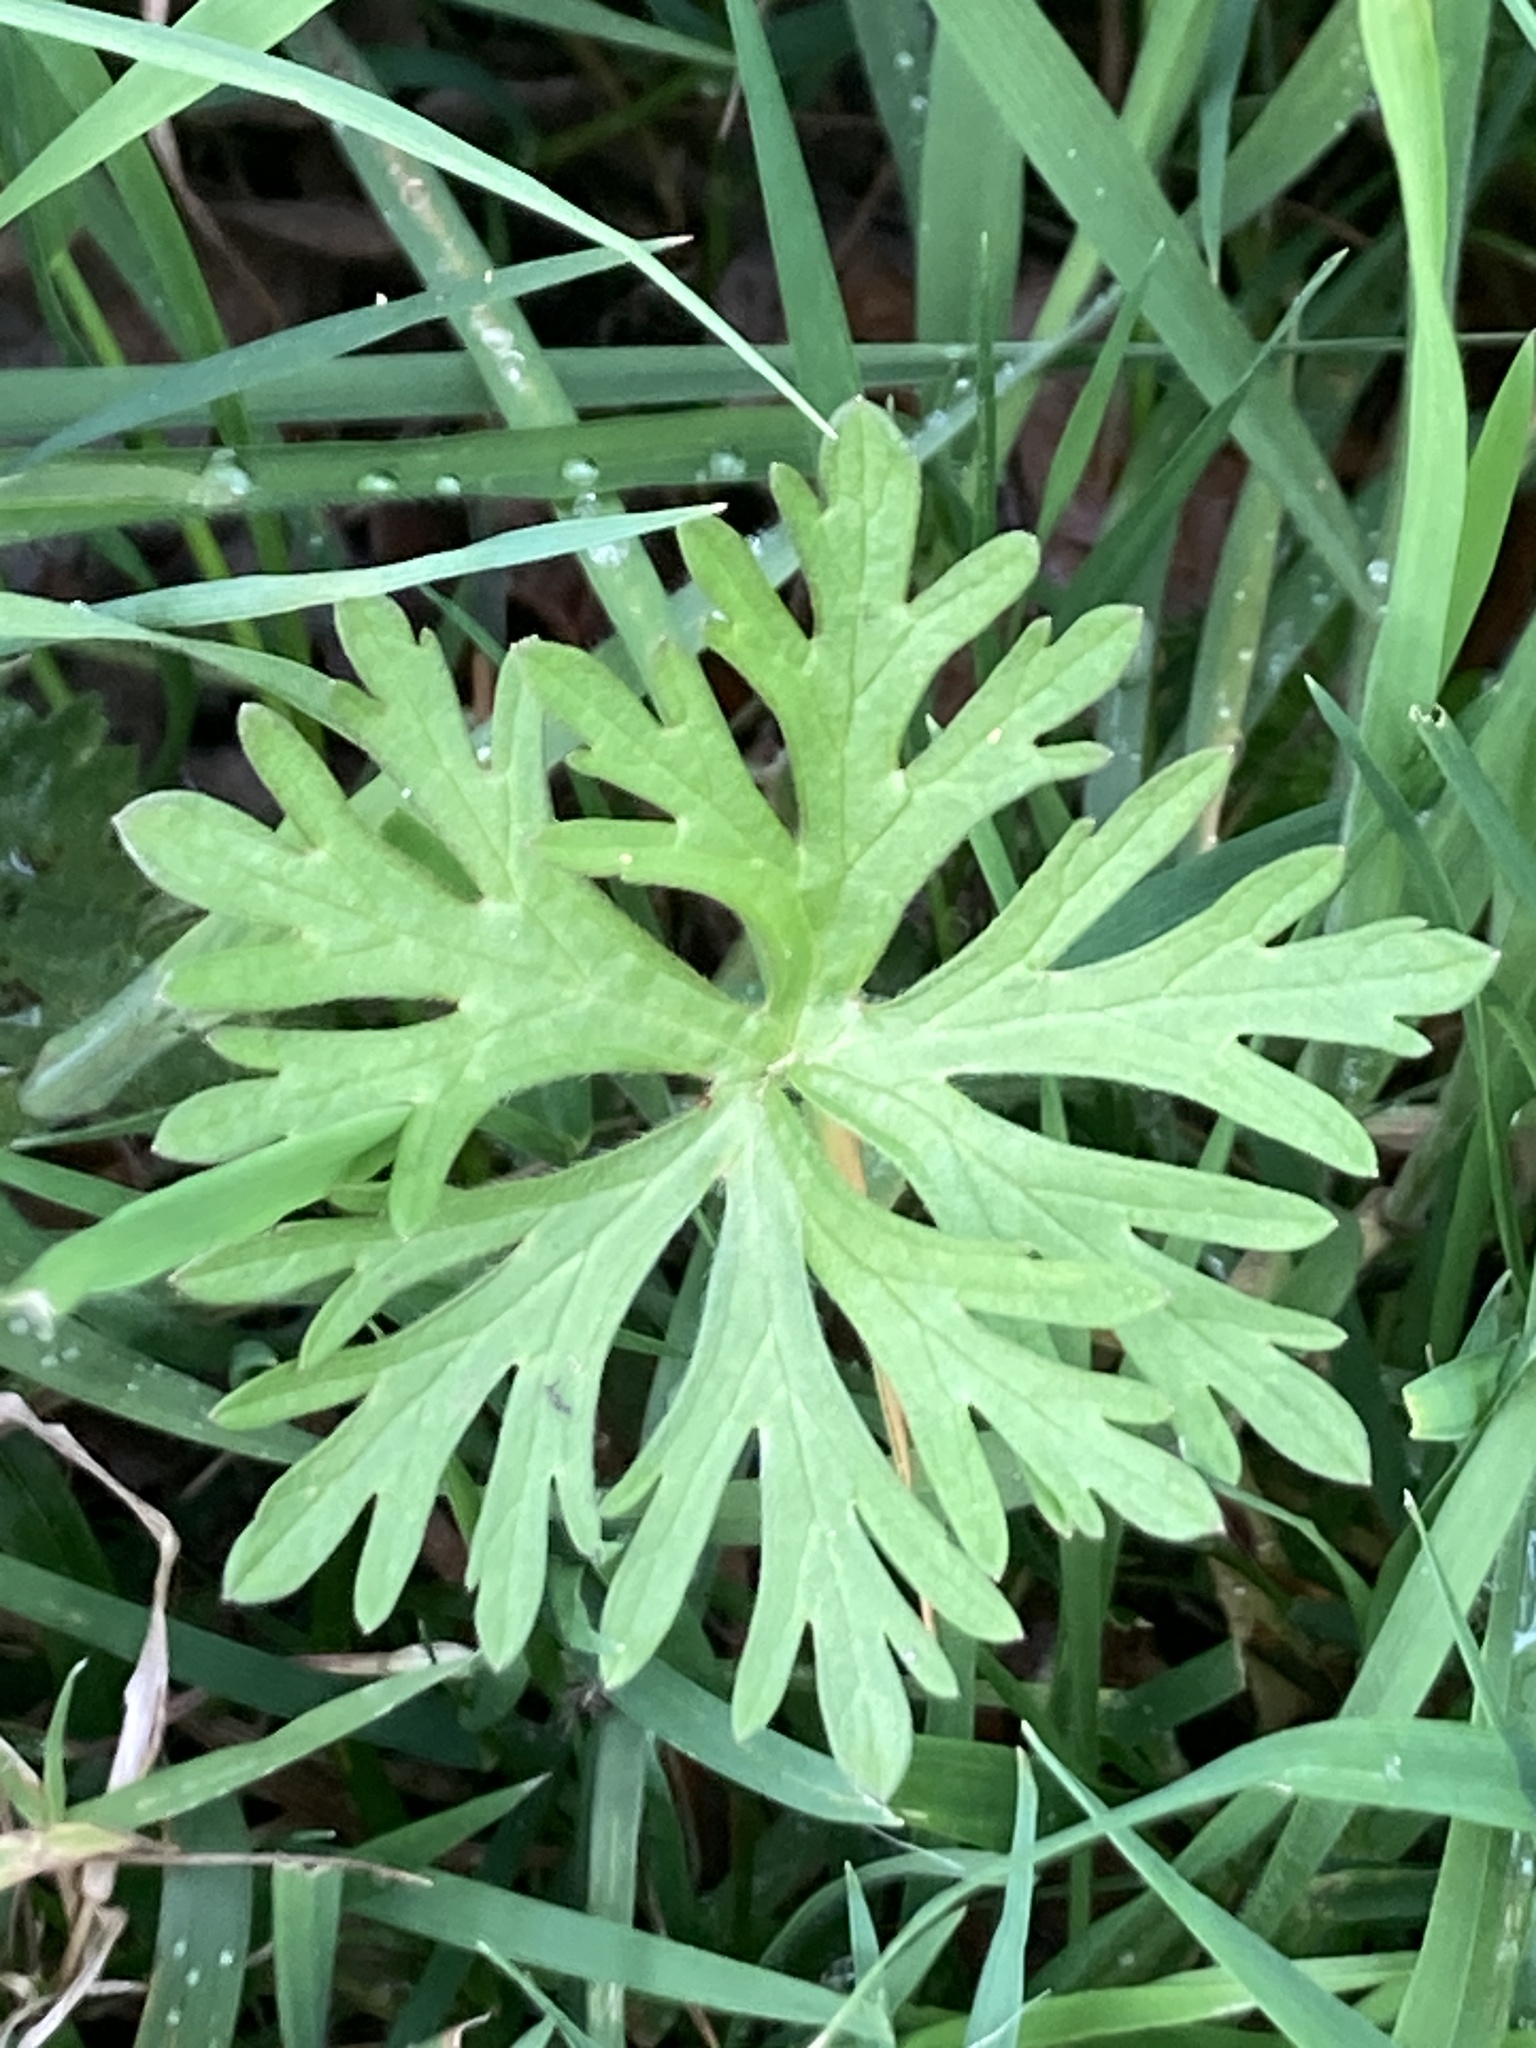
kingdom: Plantae
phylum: Tracheophyta
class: Magnoliopsida
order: Geraniales
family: Geraniaceae
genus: Geranium
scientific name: Geranium dissectum
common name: Cut-leaved crane's-bill
